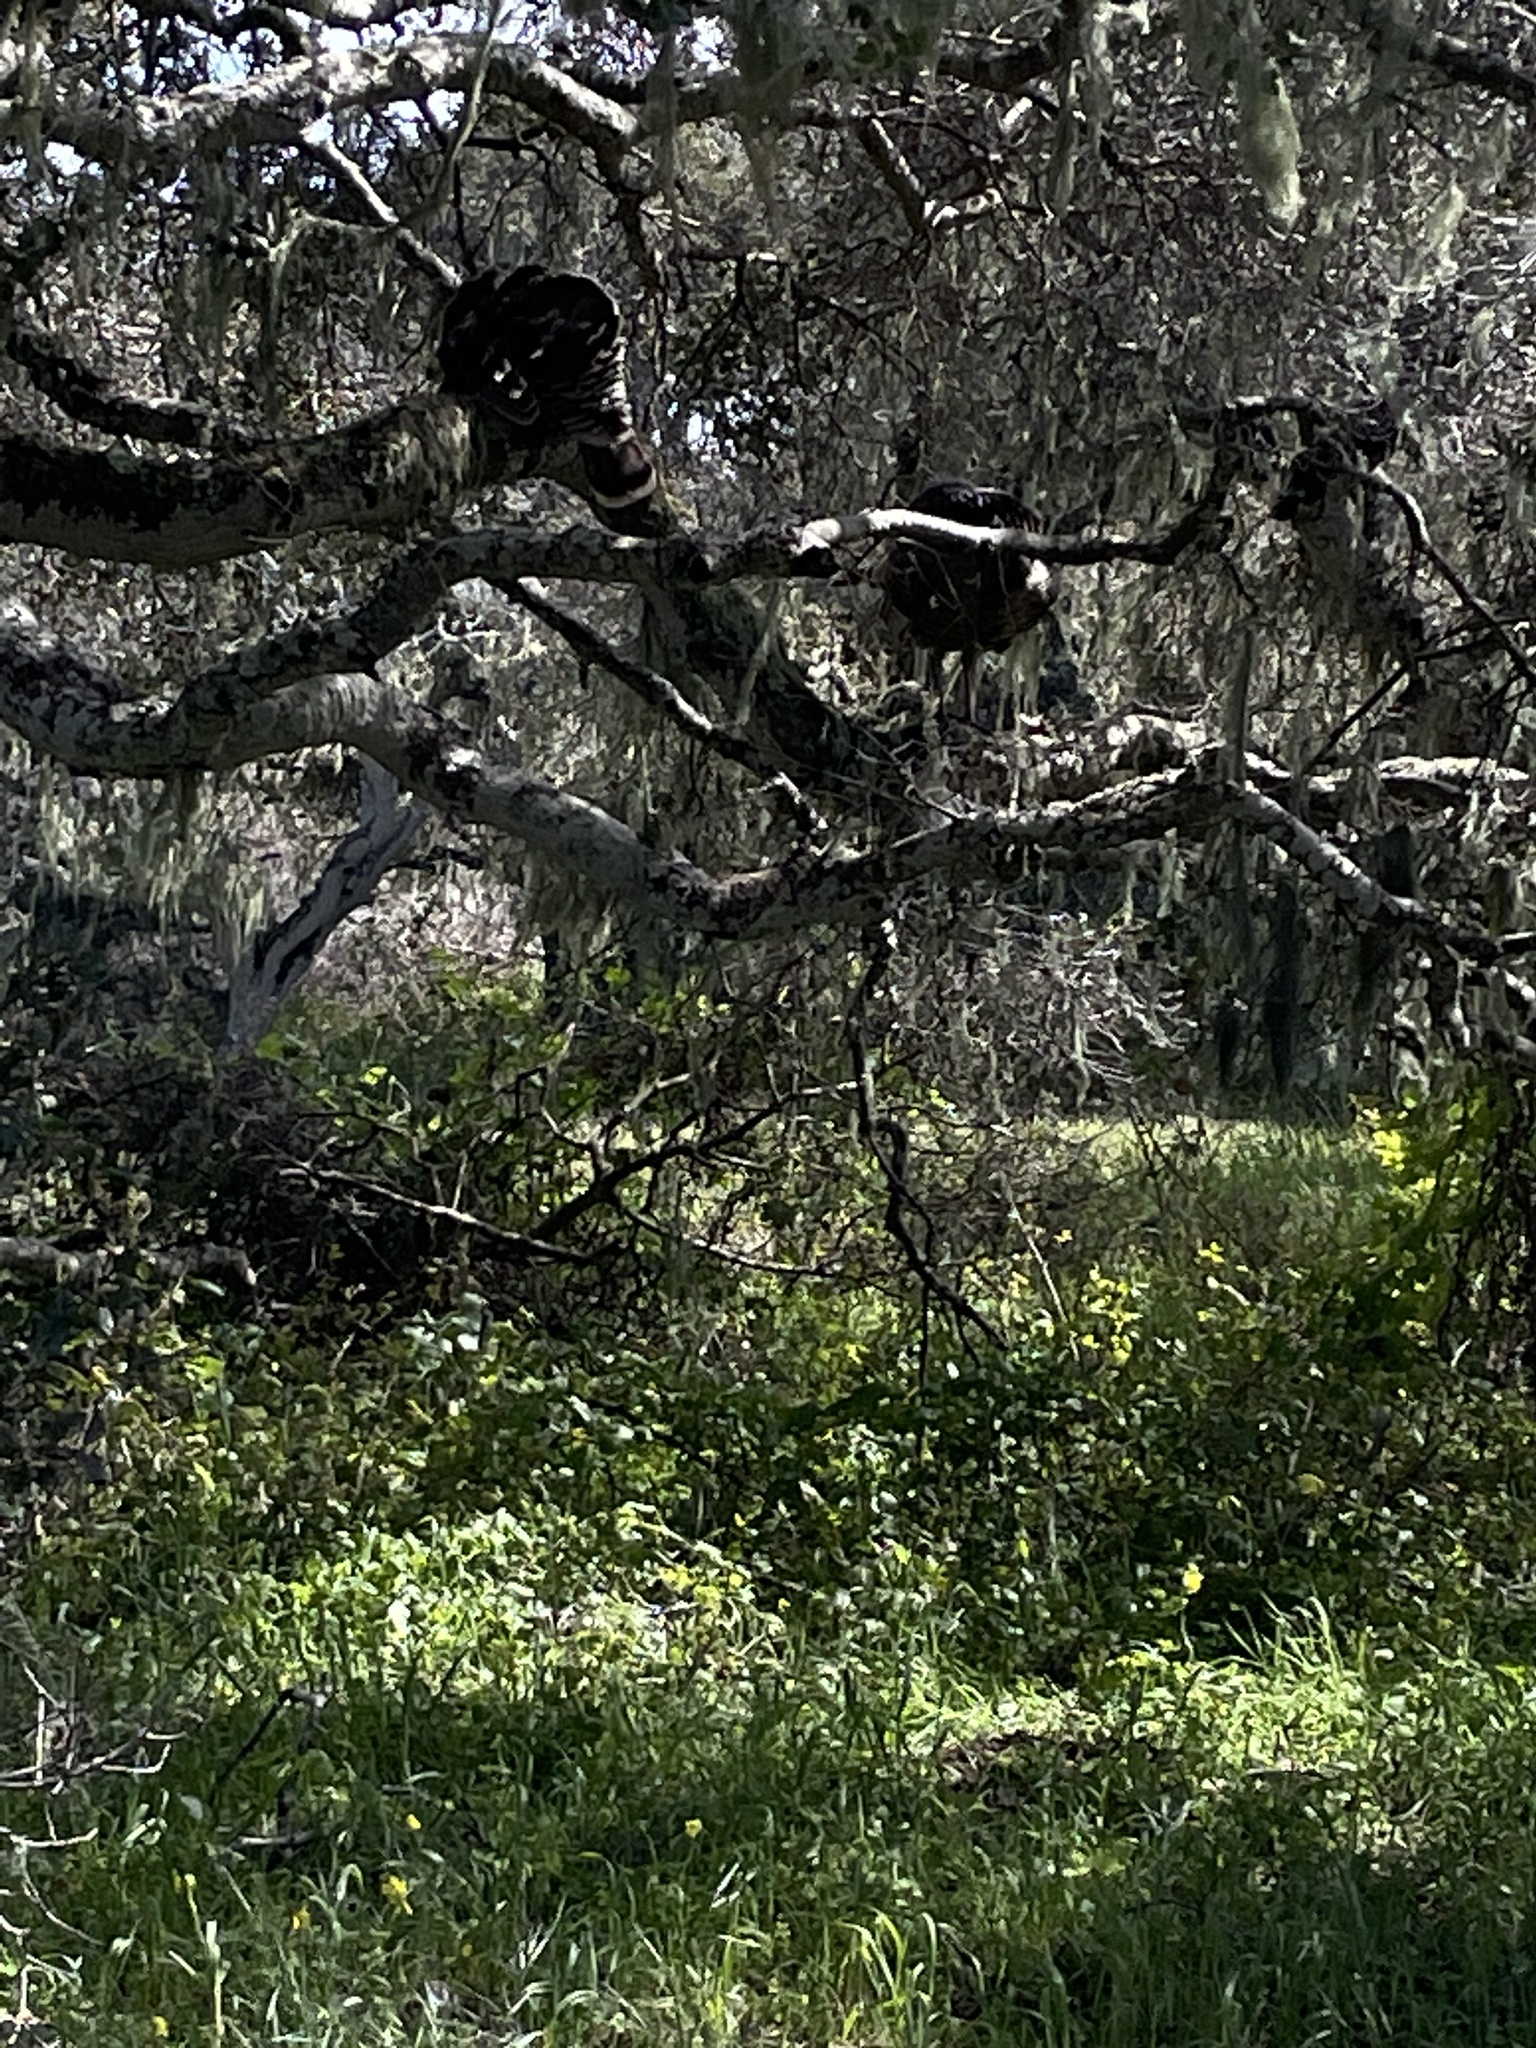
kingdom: Animalia
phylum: Chordata
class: Aves
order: Galliformes
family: Phasianidae
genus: Meleagris
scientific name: Meleagris gallopavo
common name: Wild turkey
